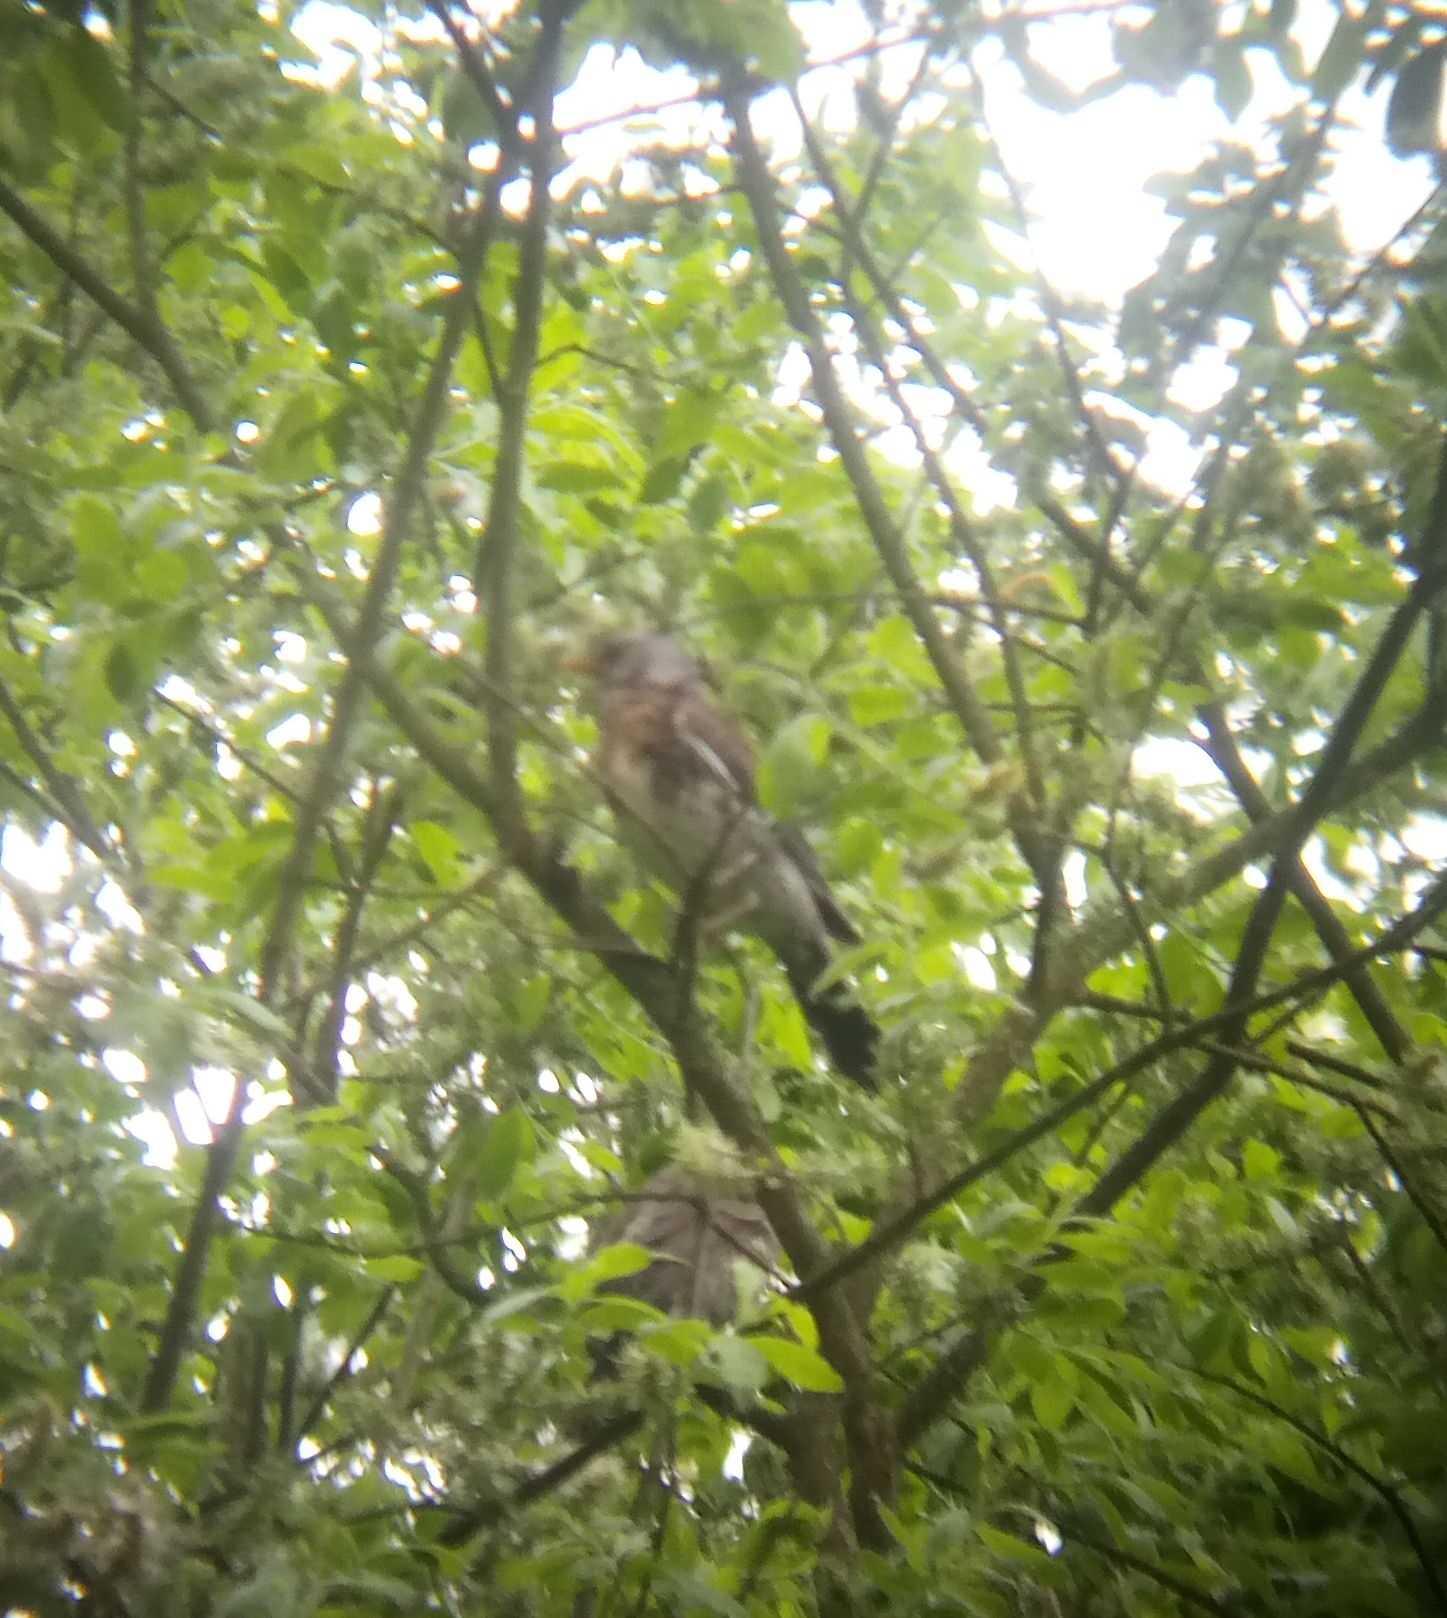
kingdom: Animalia
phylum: Chordata
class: Aves
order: Passeriformes
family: Turdidae
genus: Turdus
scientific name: Turdus pilaris
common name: Fieldfare
